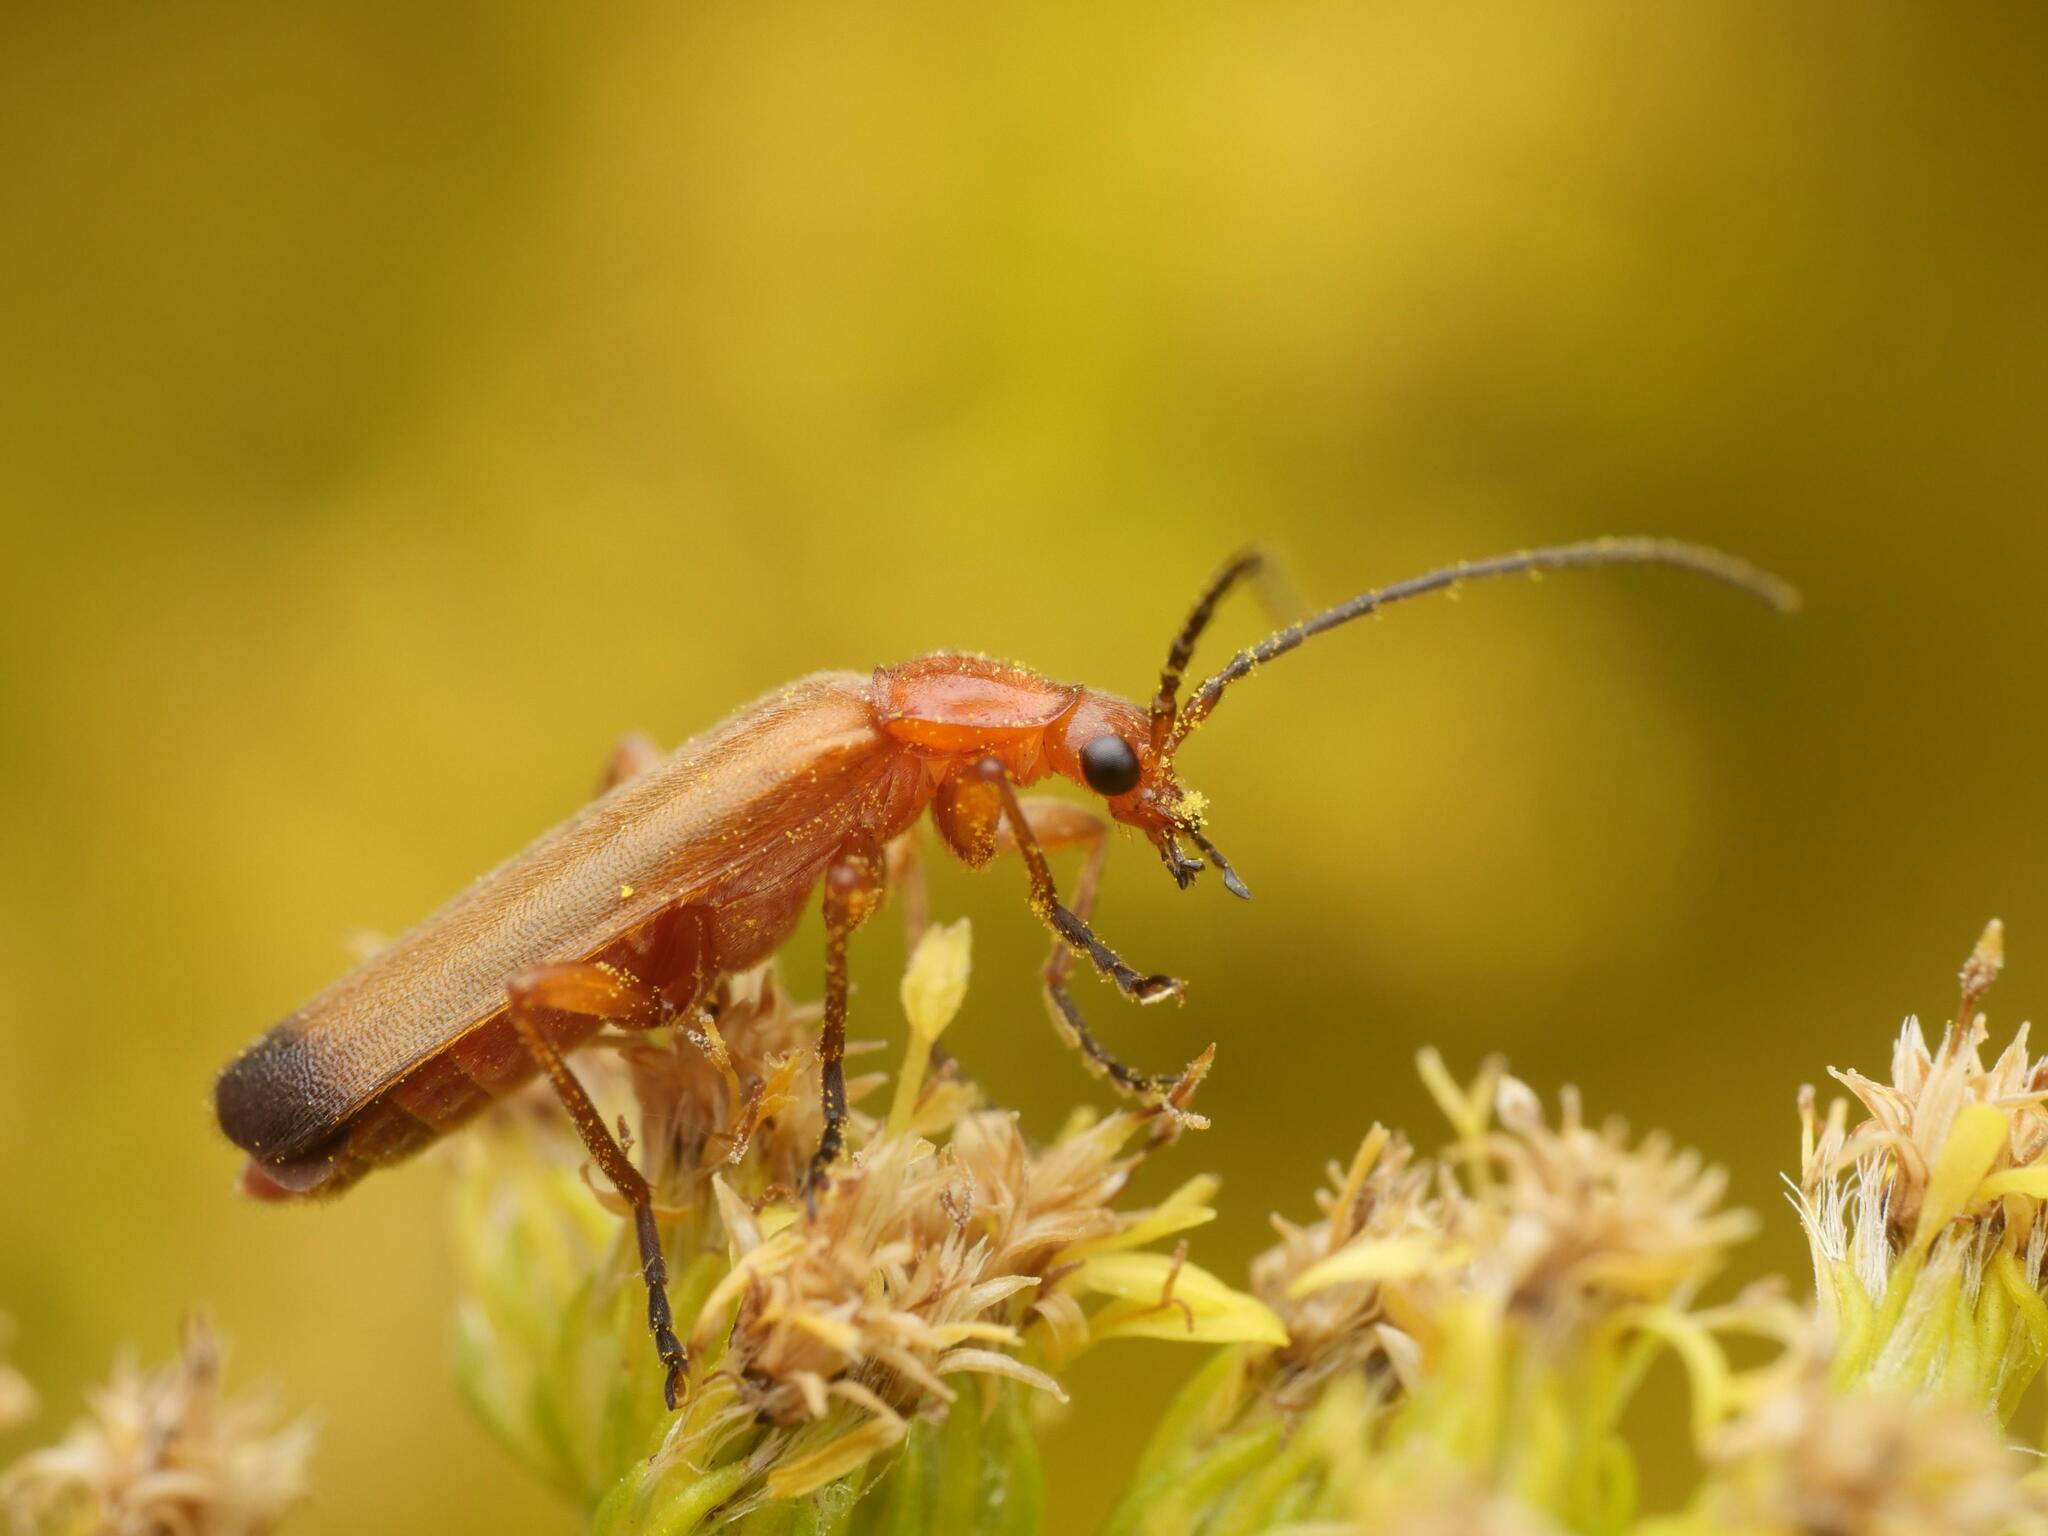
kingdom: Animalia
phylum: Arthropoda
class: Insecta
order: Coleoptera
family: Cantharidae
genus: Rhagonycha
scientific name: Rhagonycha fulva
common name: Common red soldier beetle
